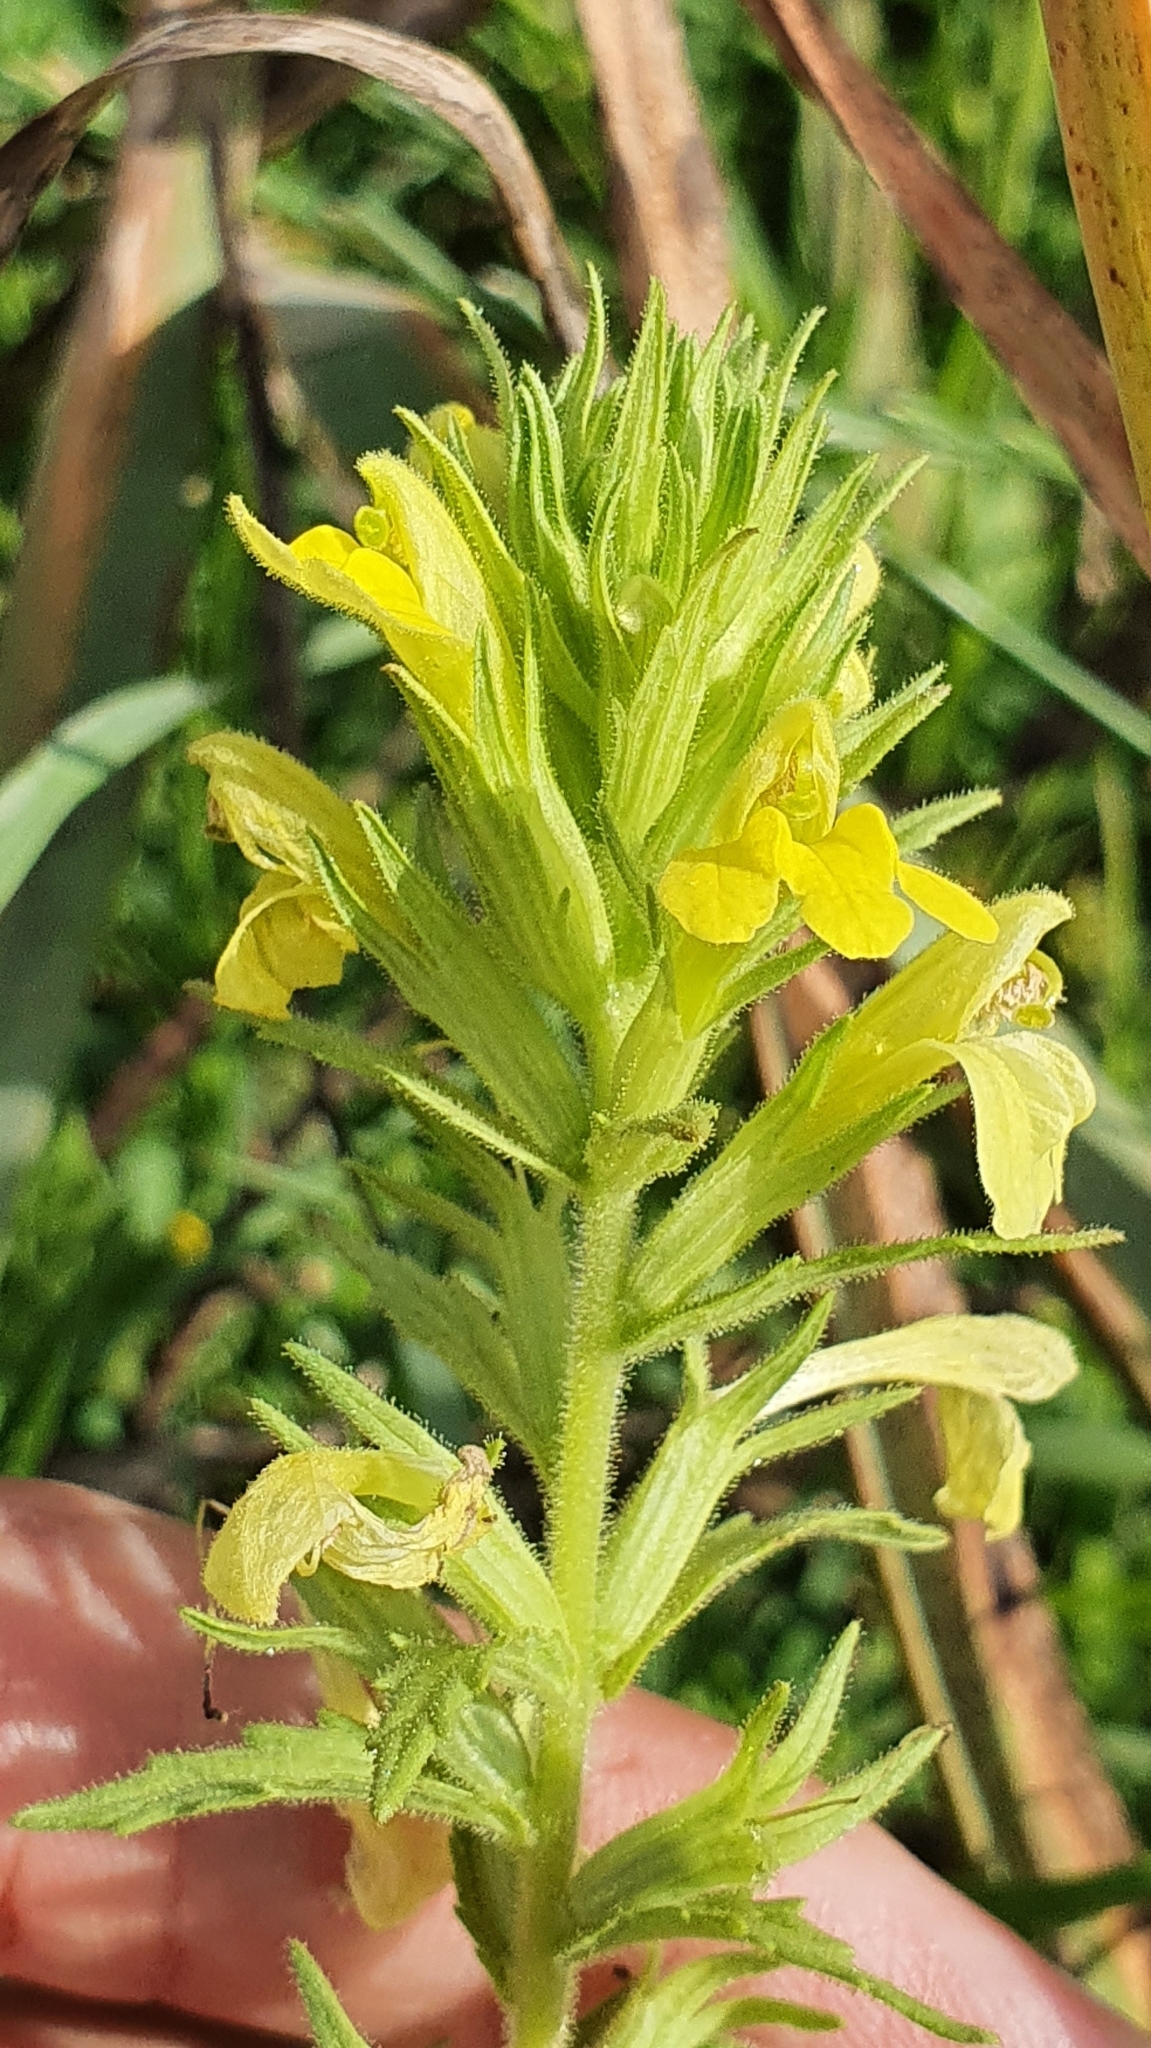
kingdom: Plantae
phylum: Tracheophyta
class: Magnoliopsida
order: Lamiales
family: Orobanchaceae
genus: Bellardia
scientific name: Bellardia viscosa
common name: Sticky parentucellia
